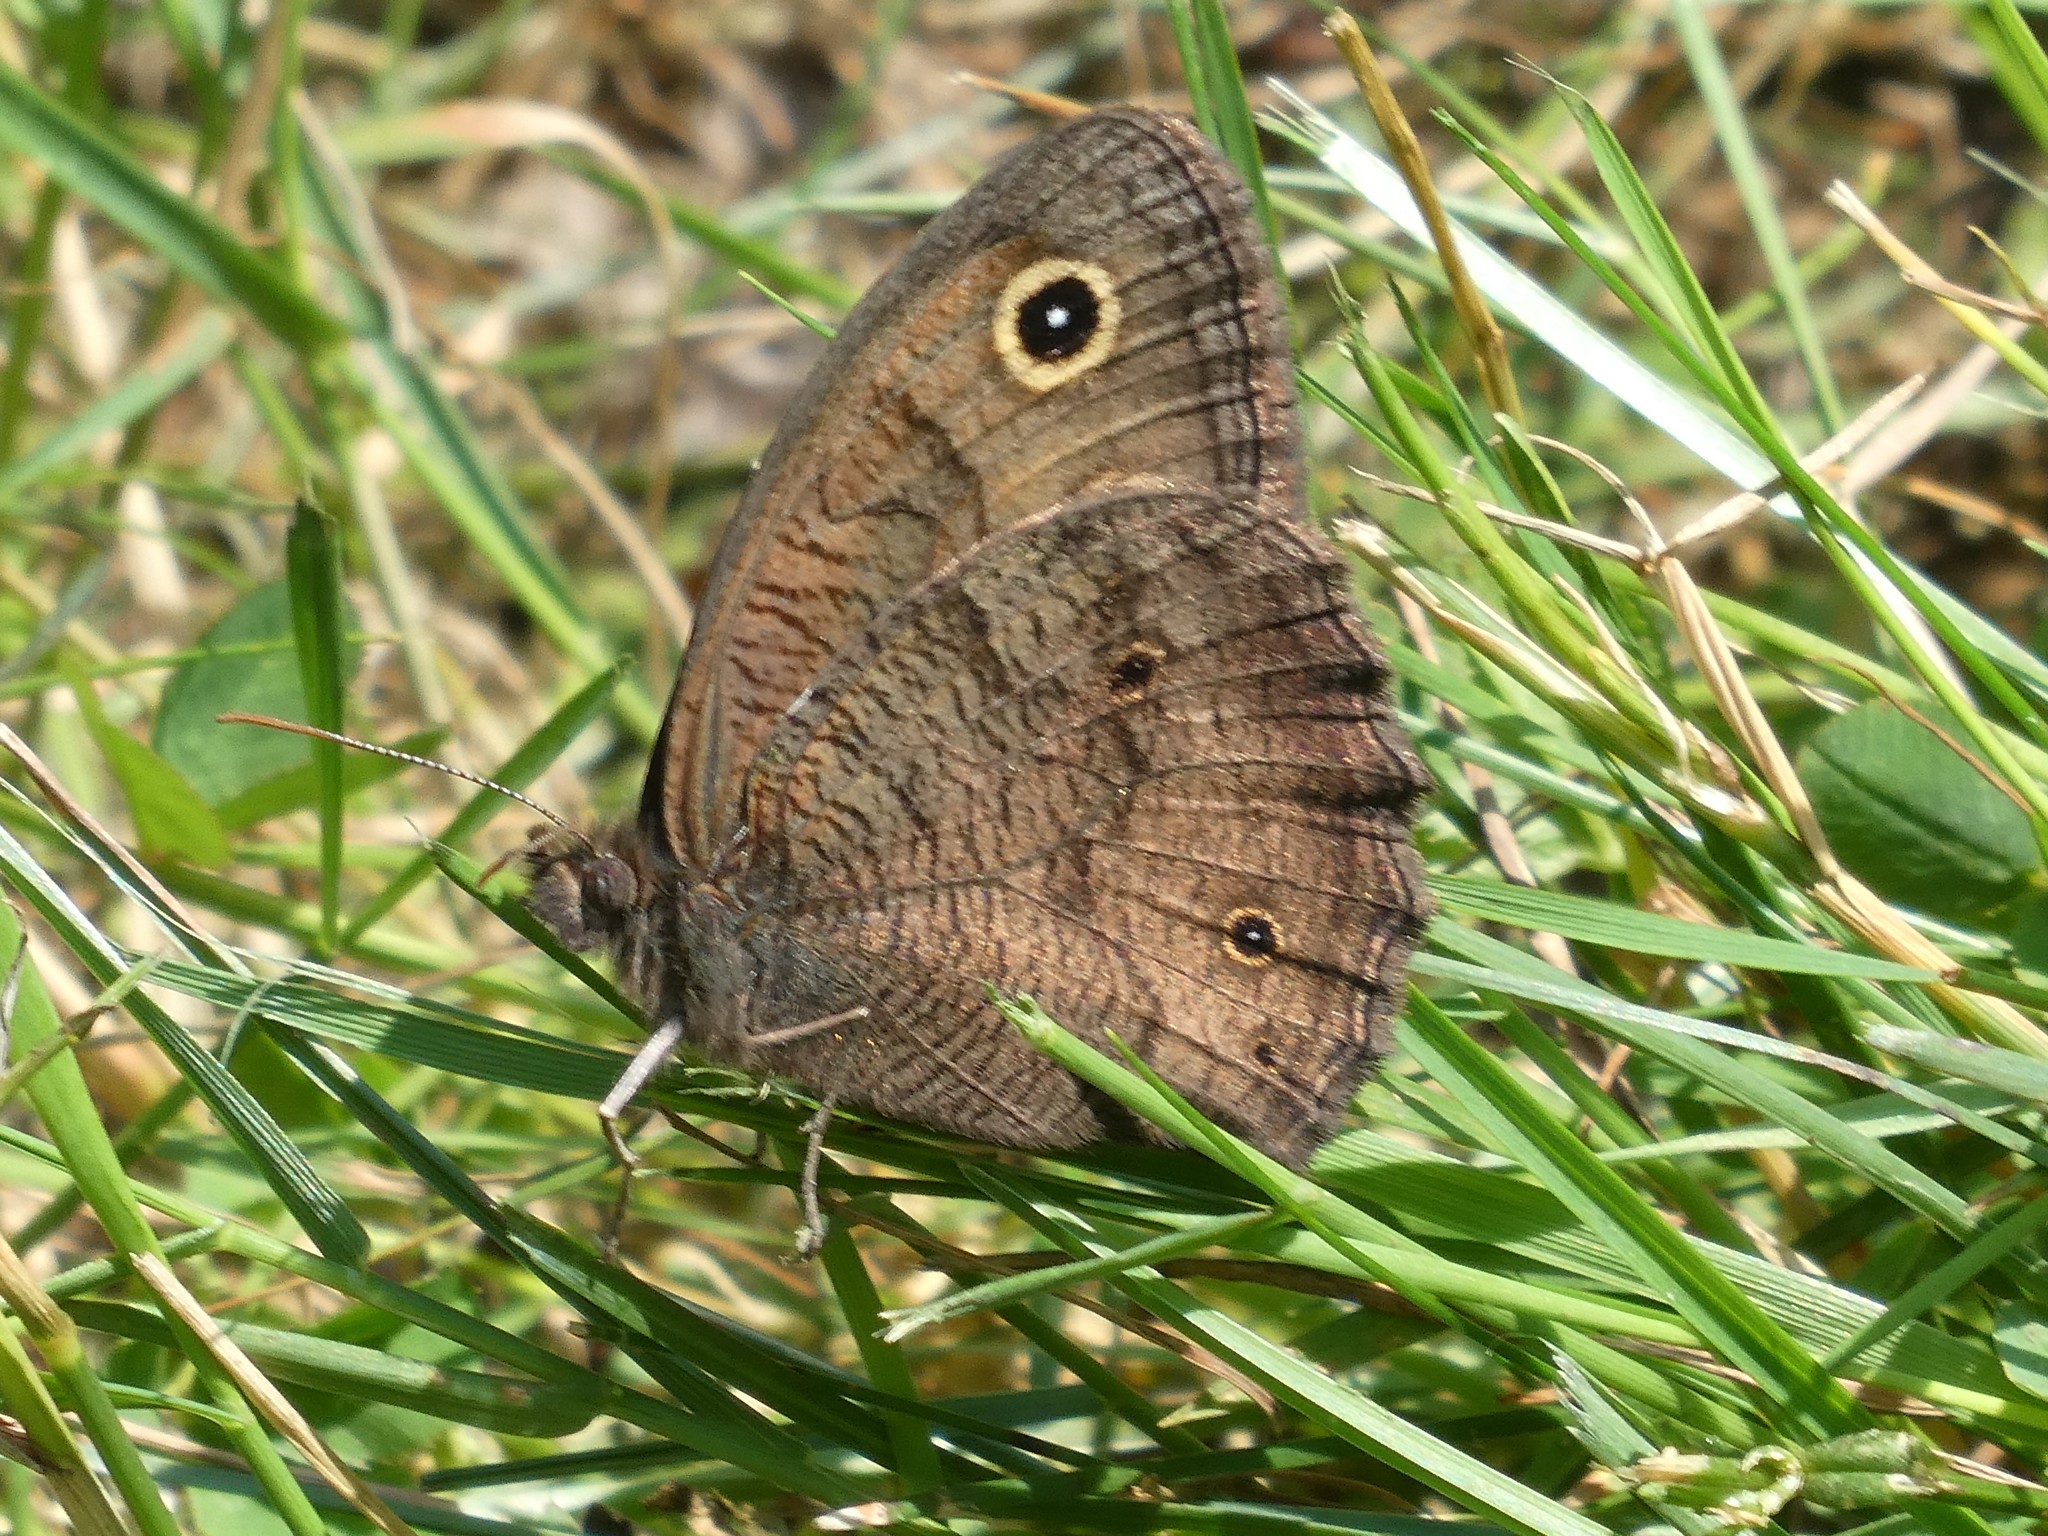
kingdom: Animalia
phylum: Arthropoda
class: Insecta
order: Lepidoptera
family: Nymphalidae
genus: Cercyonis
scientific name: Cercyonis pegala
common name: Common wood-nymph
